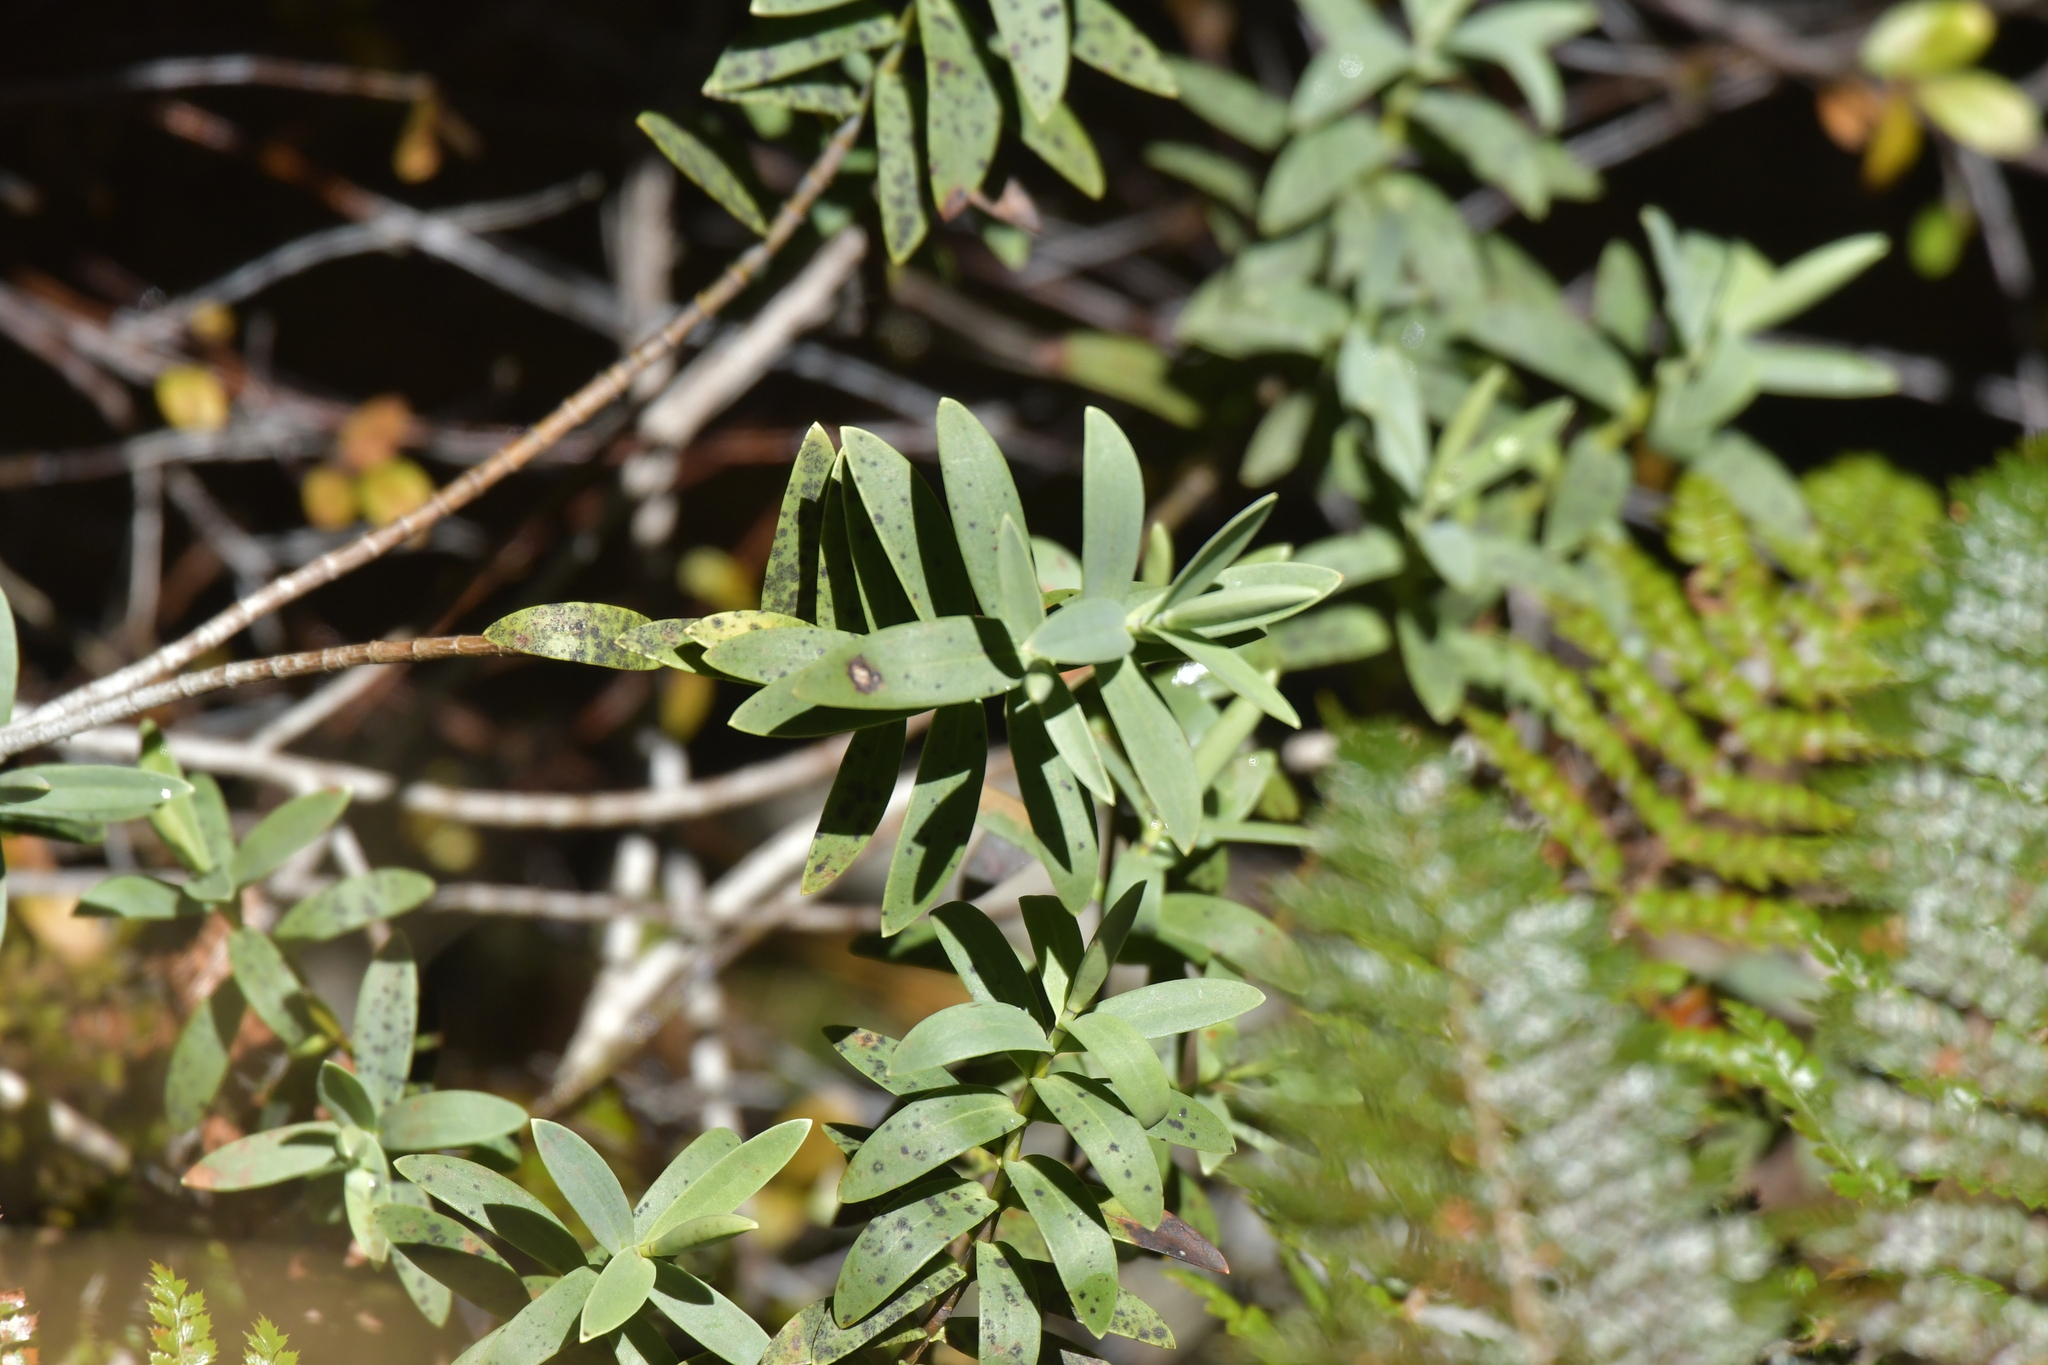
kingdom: Plantae
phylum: Tracheophyta
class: Magnoliopsida
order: Lamiales
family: Plantaginaceae
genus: Veronica
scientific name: Veronica albicans
